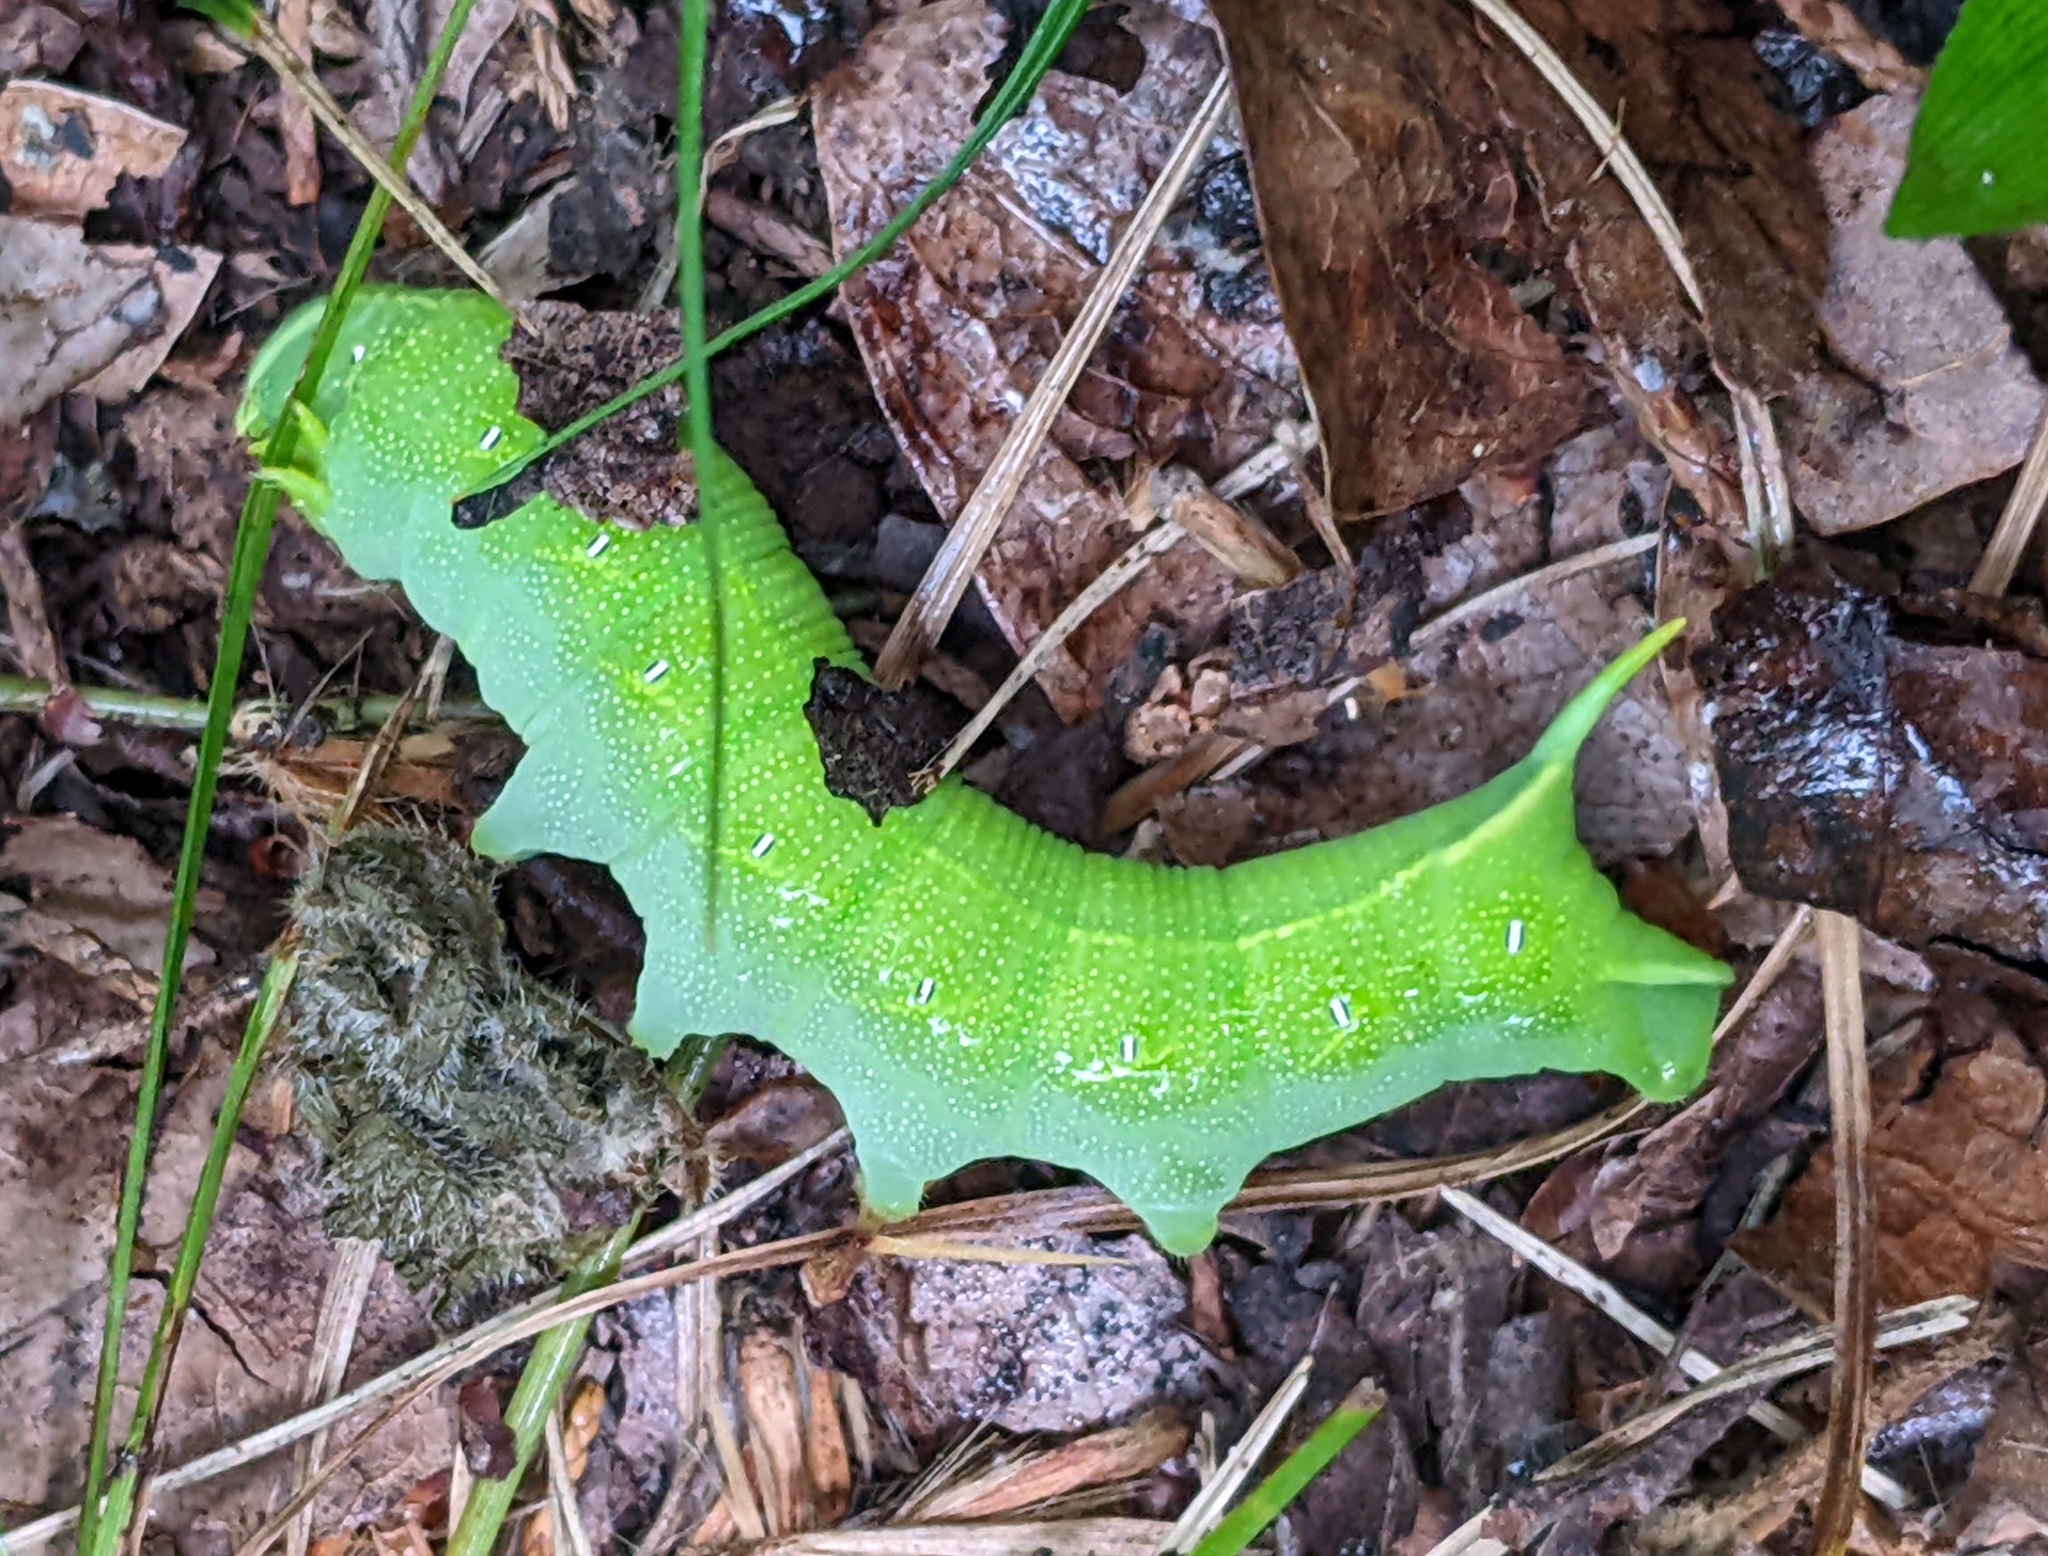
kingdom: Animalia
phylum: Arthropoda
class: Insecta
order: Lepidoptera
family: Sphingidae
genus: Deidamia
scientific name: Deidamia inscriptum
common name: Lettered sphinx
